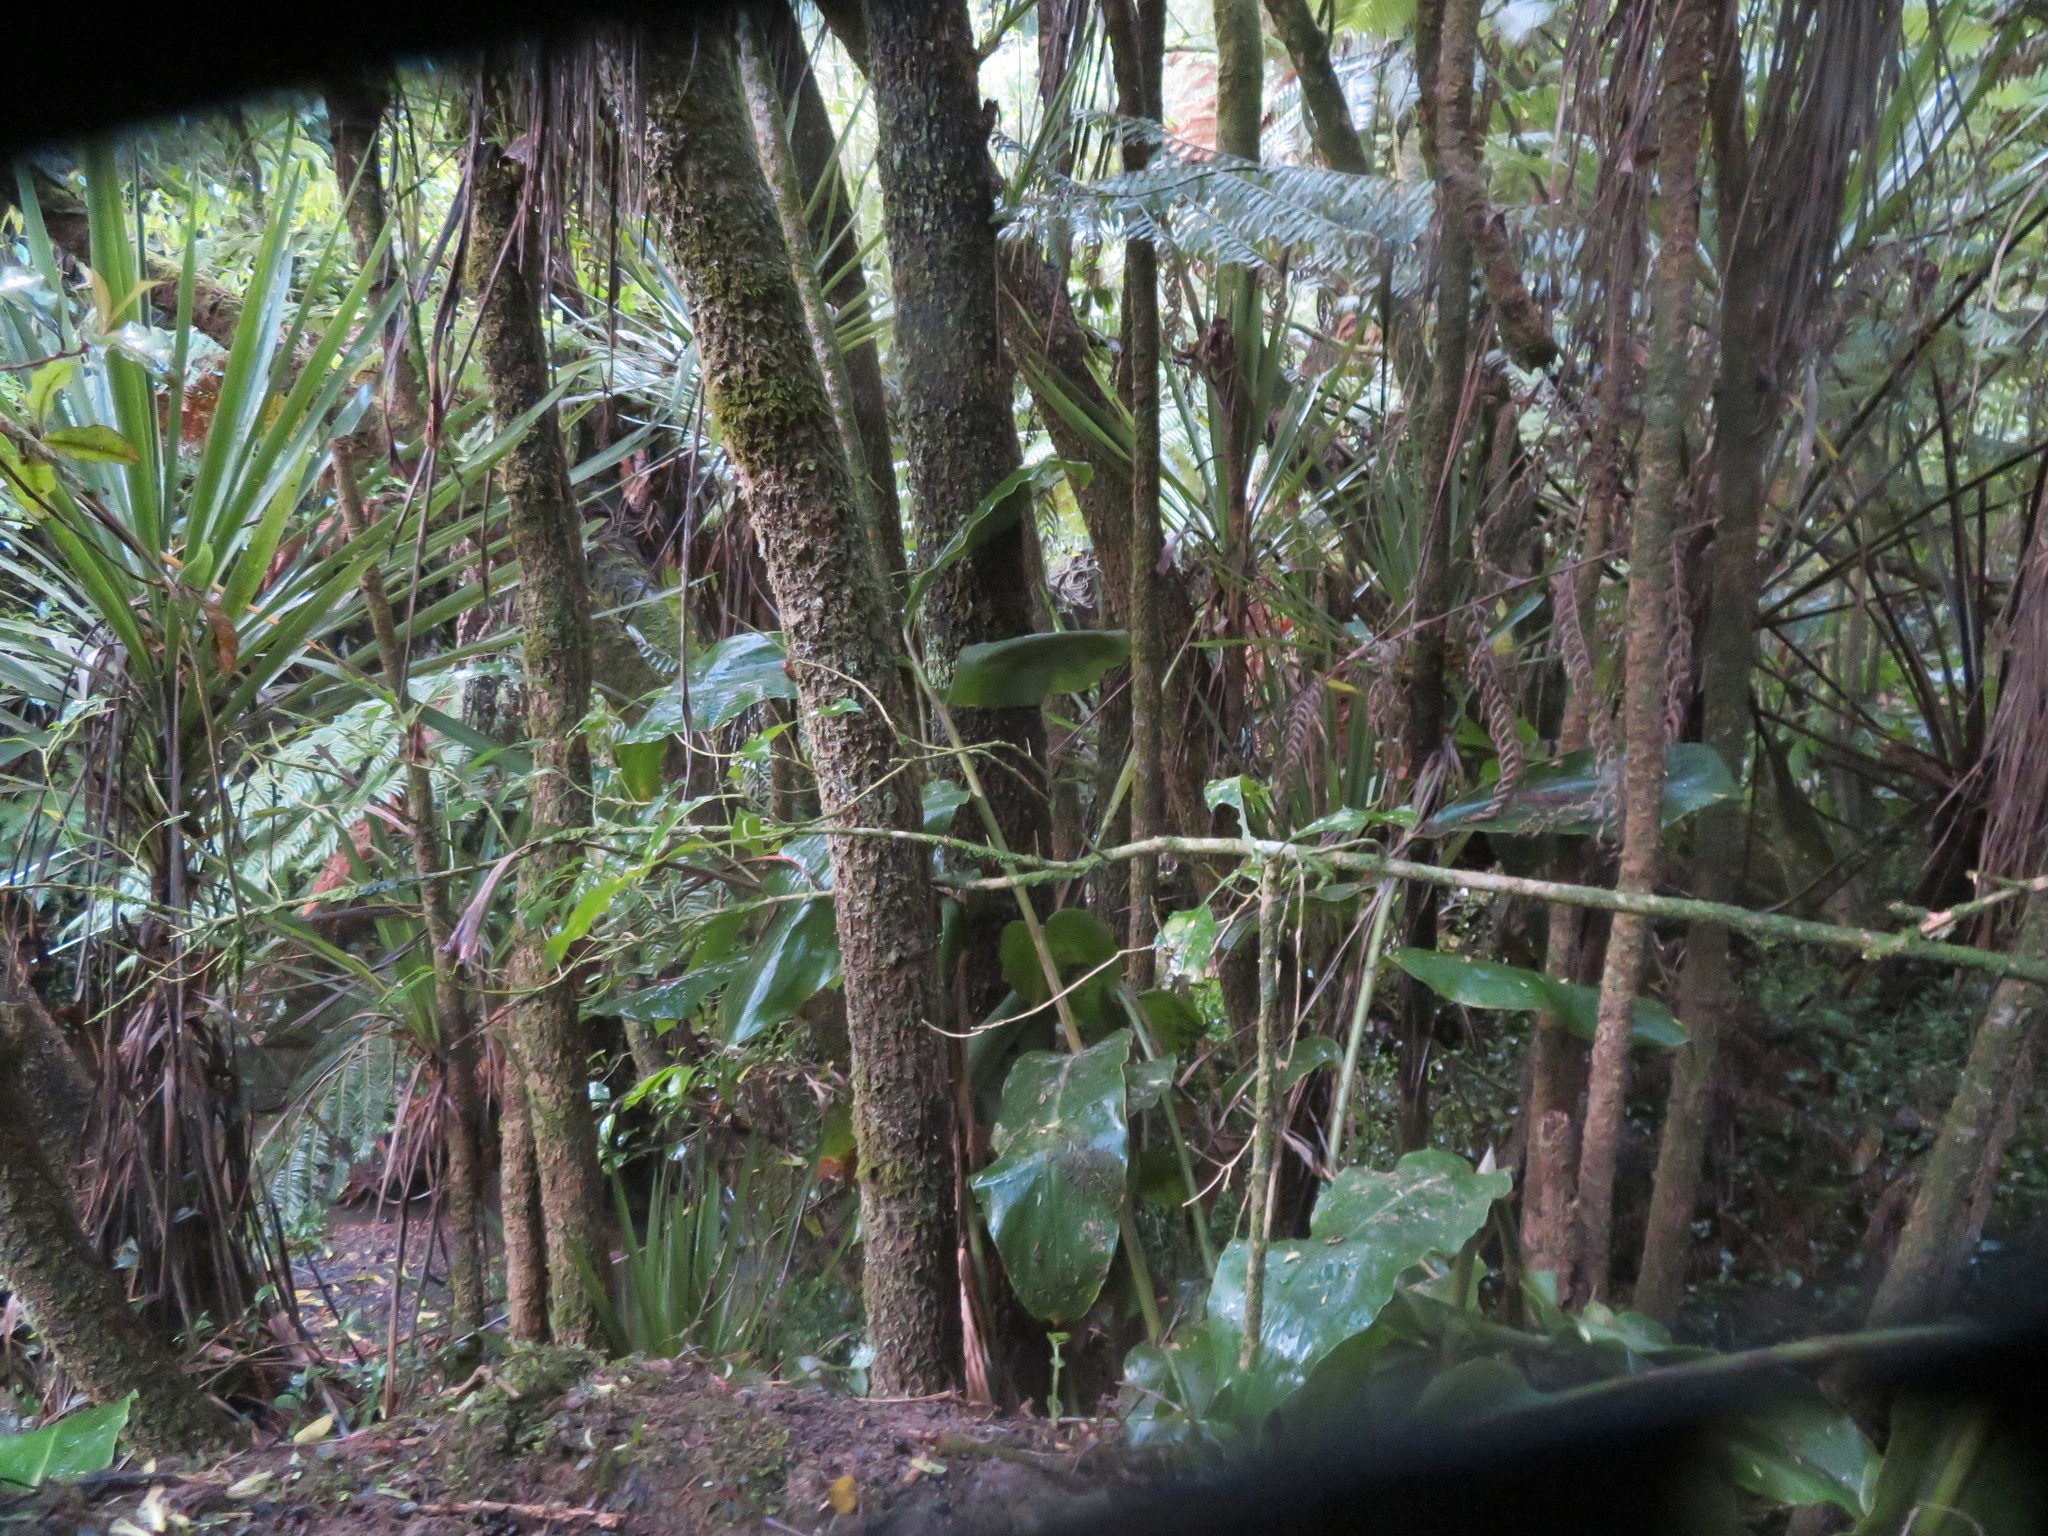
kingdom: Plantae
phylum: Tracheophyta
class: Liliopsida
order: Zingiberales
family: Zingiberaceae
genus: Hedychium
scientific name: Hedychium gardnerianum
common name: Himalayan ginger
